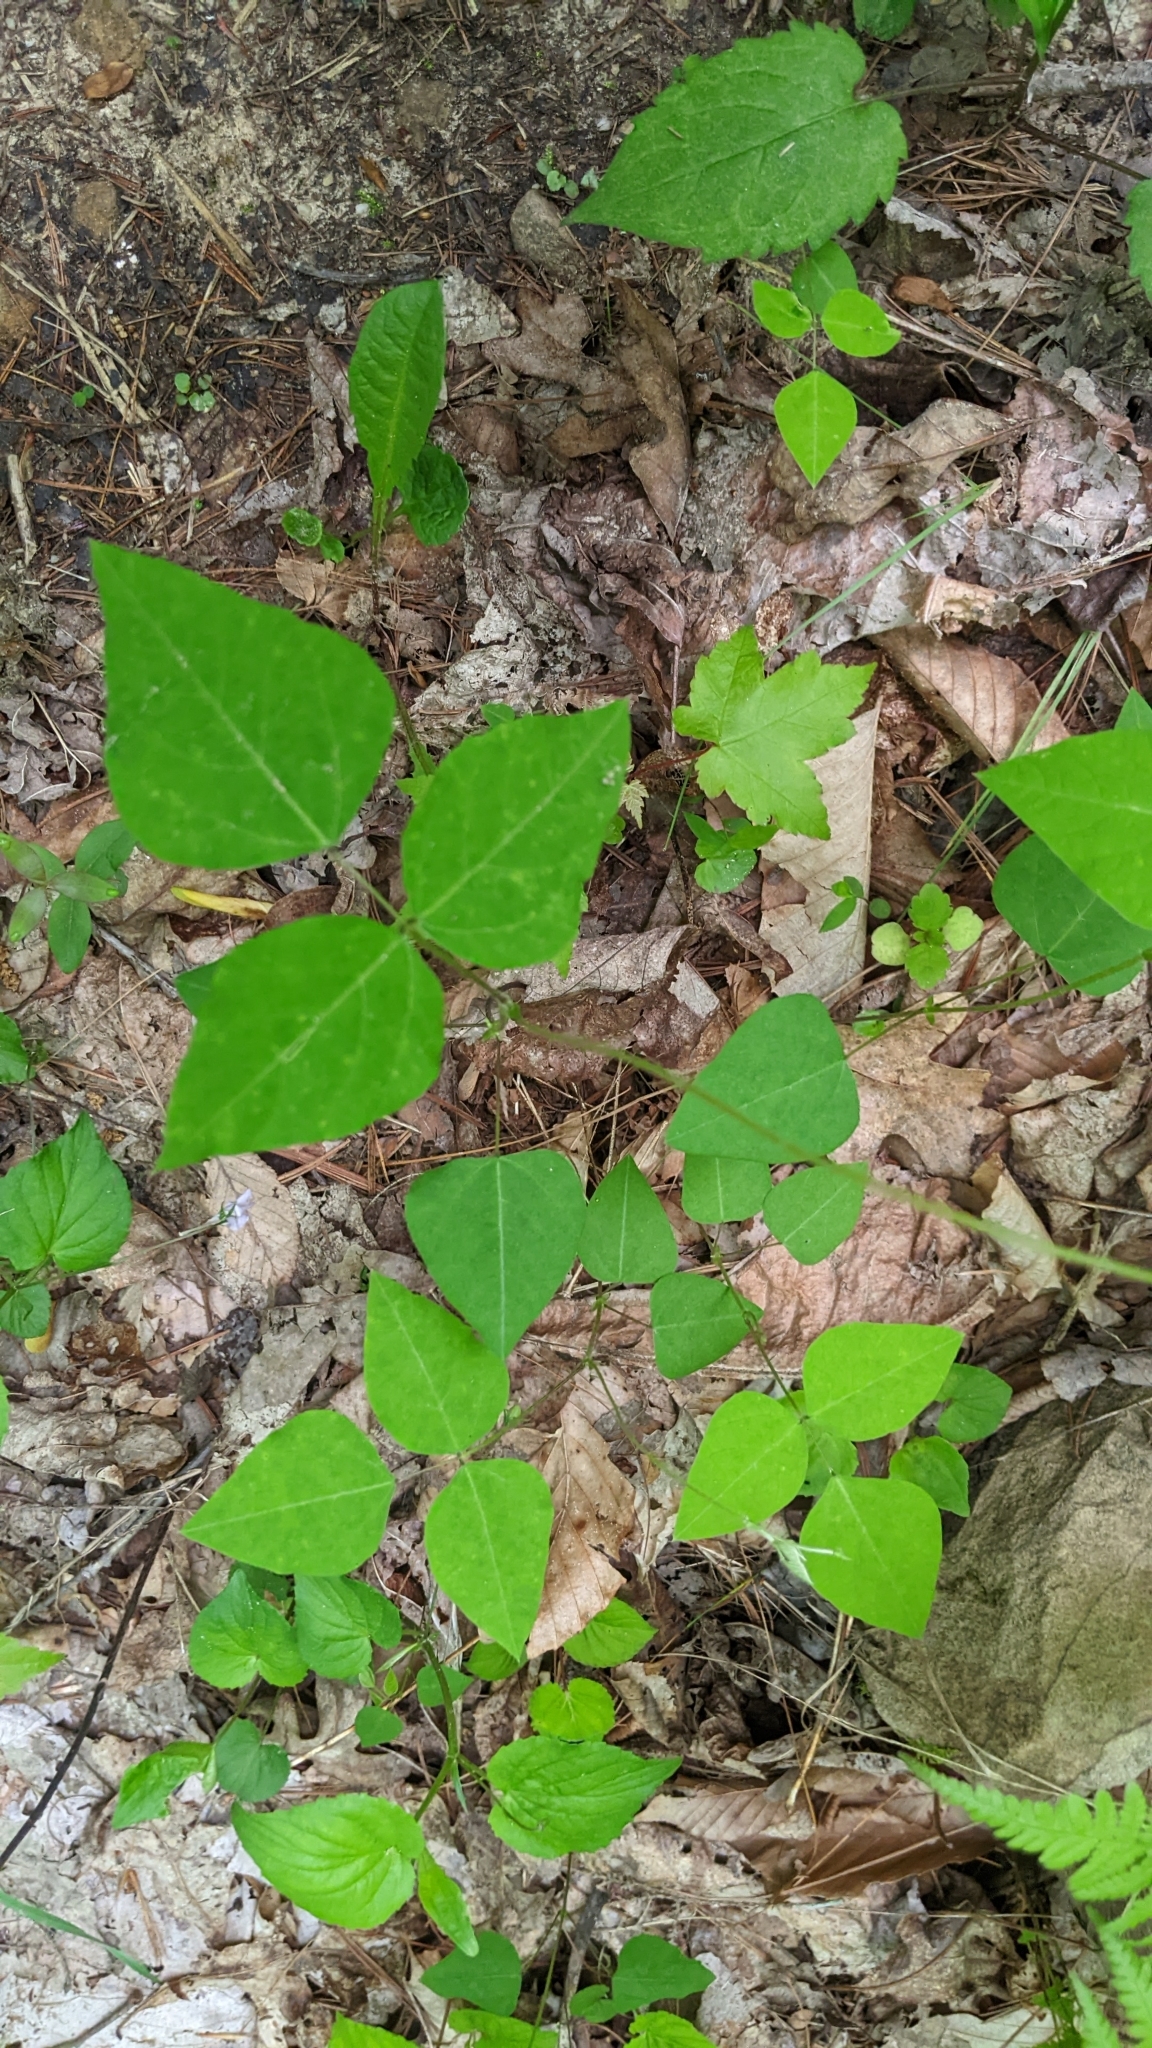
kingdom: Plantae
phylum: Tracheophyta
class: Magnoliopsida
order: Fabales
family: Fabaceae
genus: Amphicarpaea
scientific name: Amphicarpaea bracteata
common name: American hog peanut
